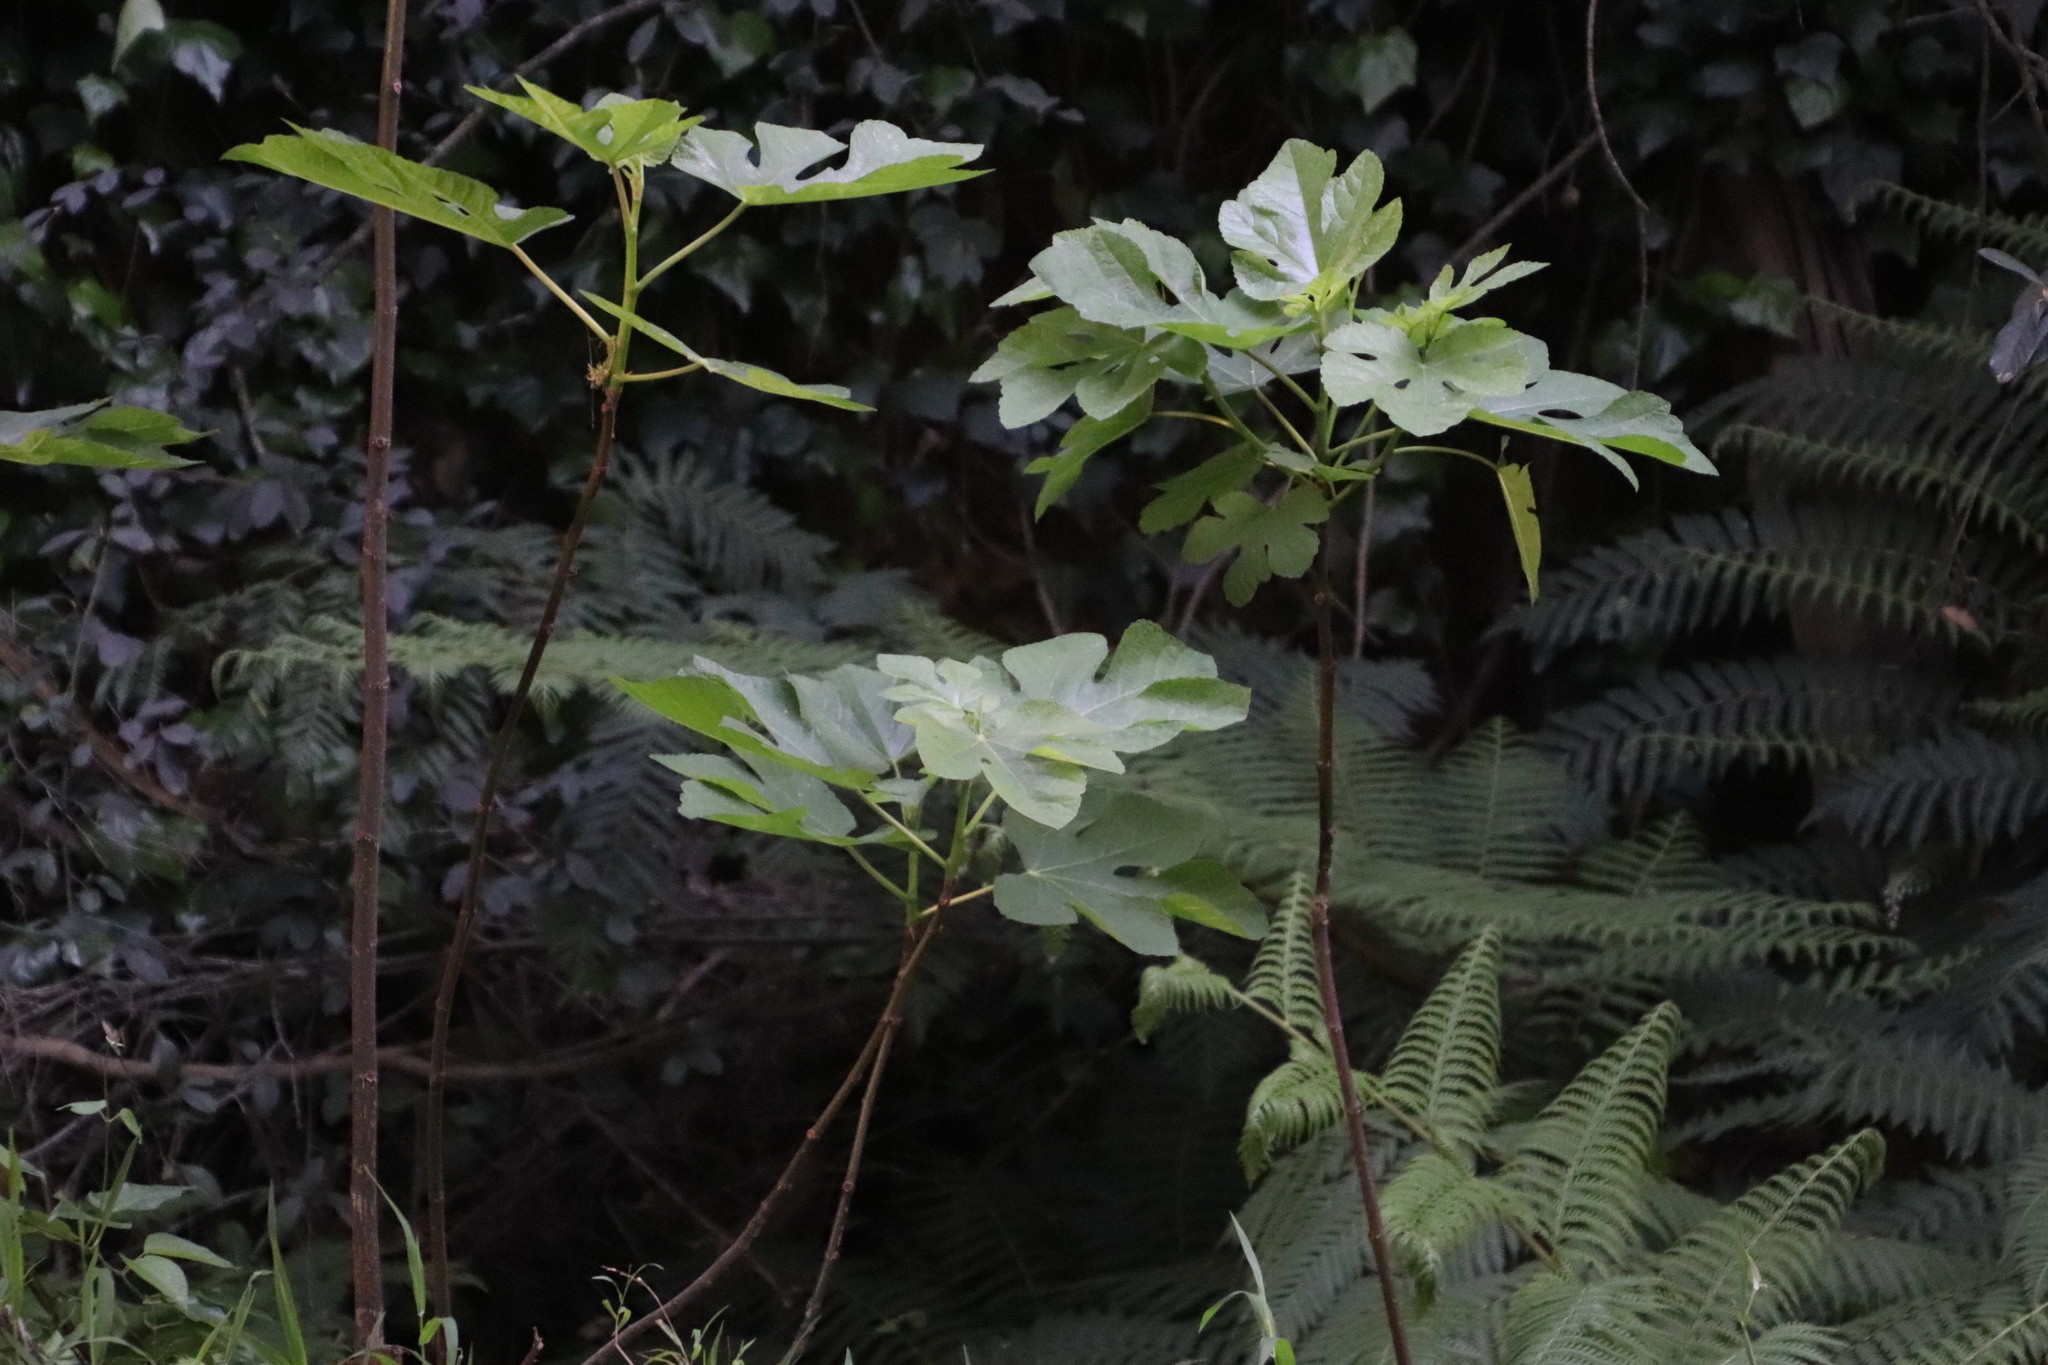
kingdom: Plantae
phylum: Tracheophyta
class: Magnoliopsida
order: Rosales
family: Moraceae
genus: Ficus
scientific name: Ficus carica
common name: Fig
